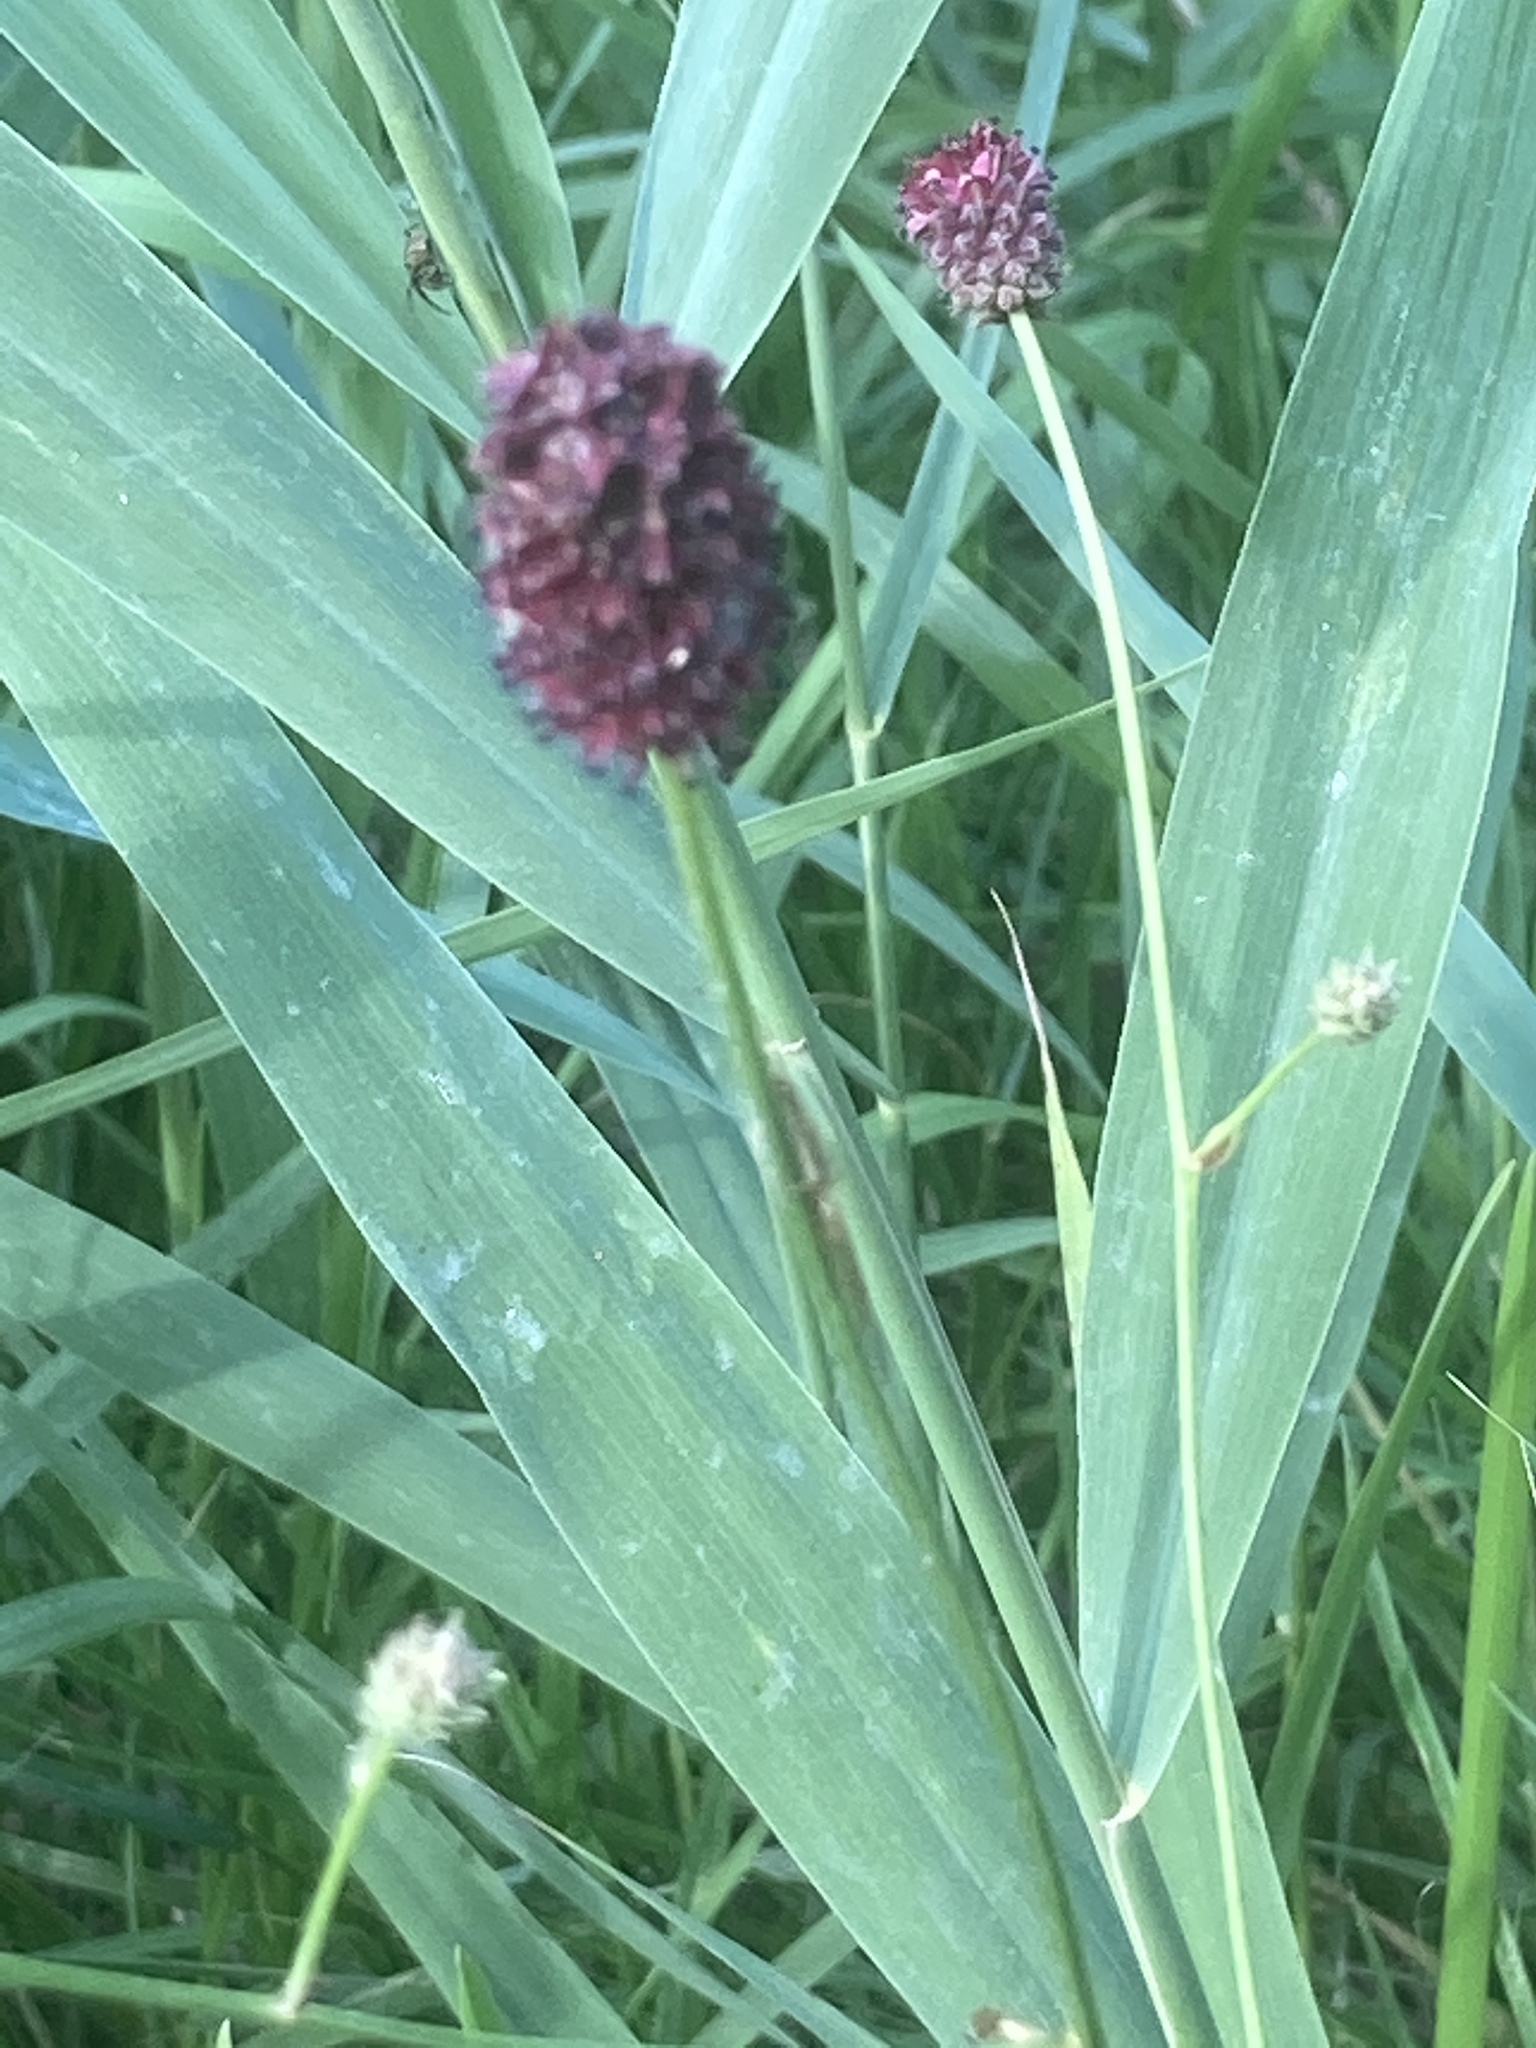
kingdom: Plantae
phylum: Tracheophyta
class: Magnoliopsida
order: Rosales
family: Rosaceae
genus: Sanguisorba
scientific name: Sanguisorba officinalis
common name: Great burnet
